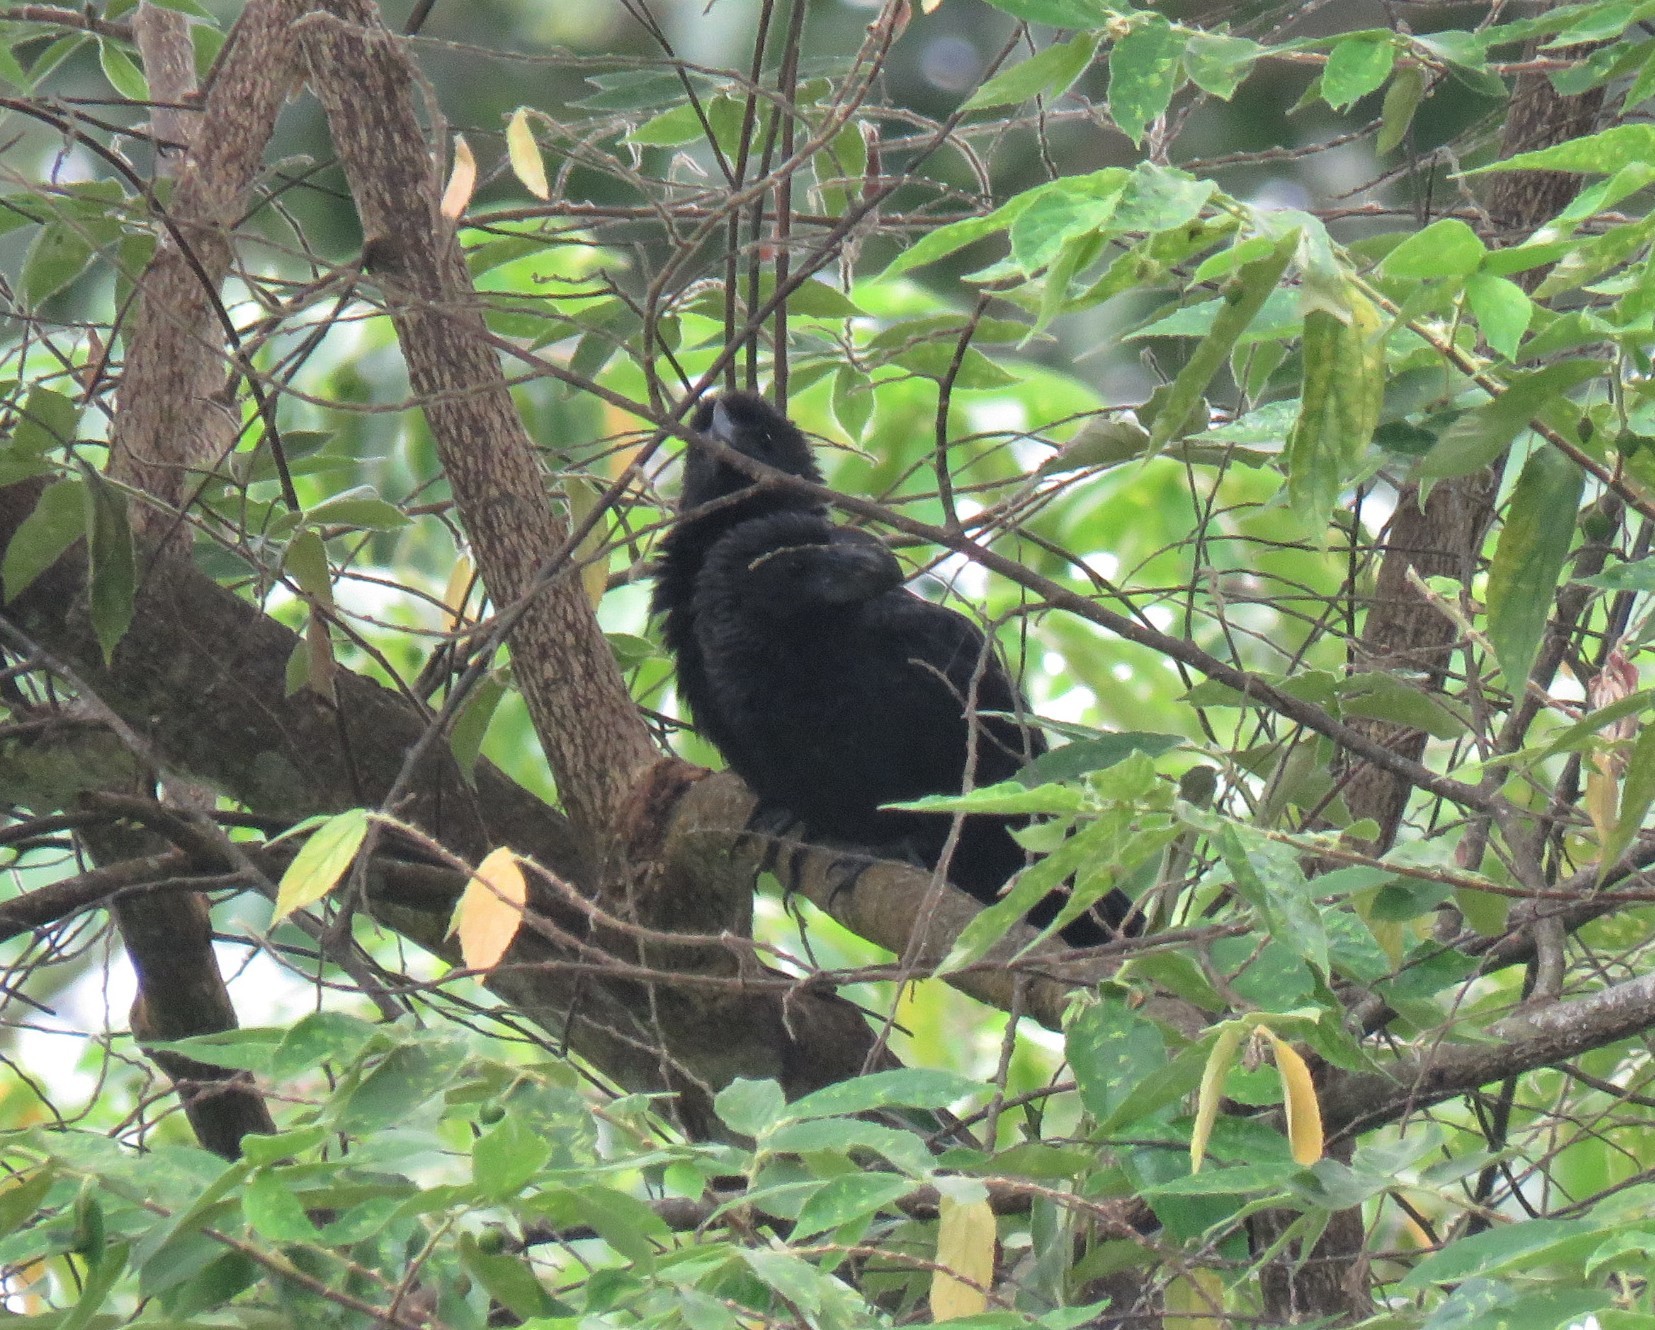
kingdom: Animalia
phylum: Chordata
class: Aves
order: Cuculiformes
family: Cuculidae
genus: Crotophaga
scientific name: Crotophaga major
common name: Greater ani
